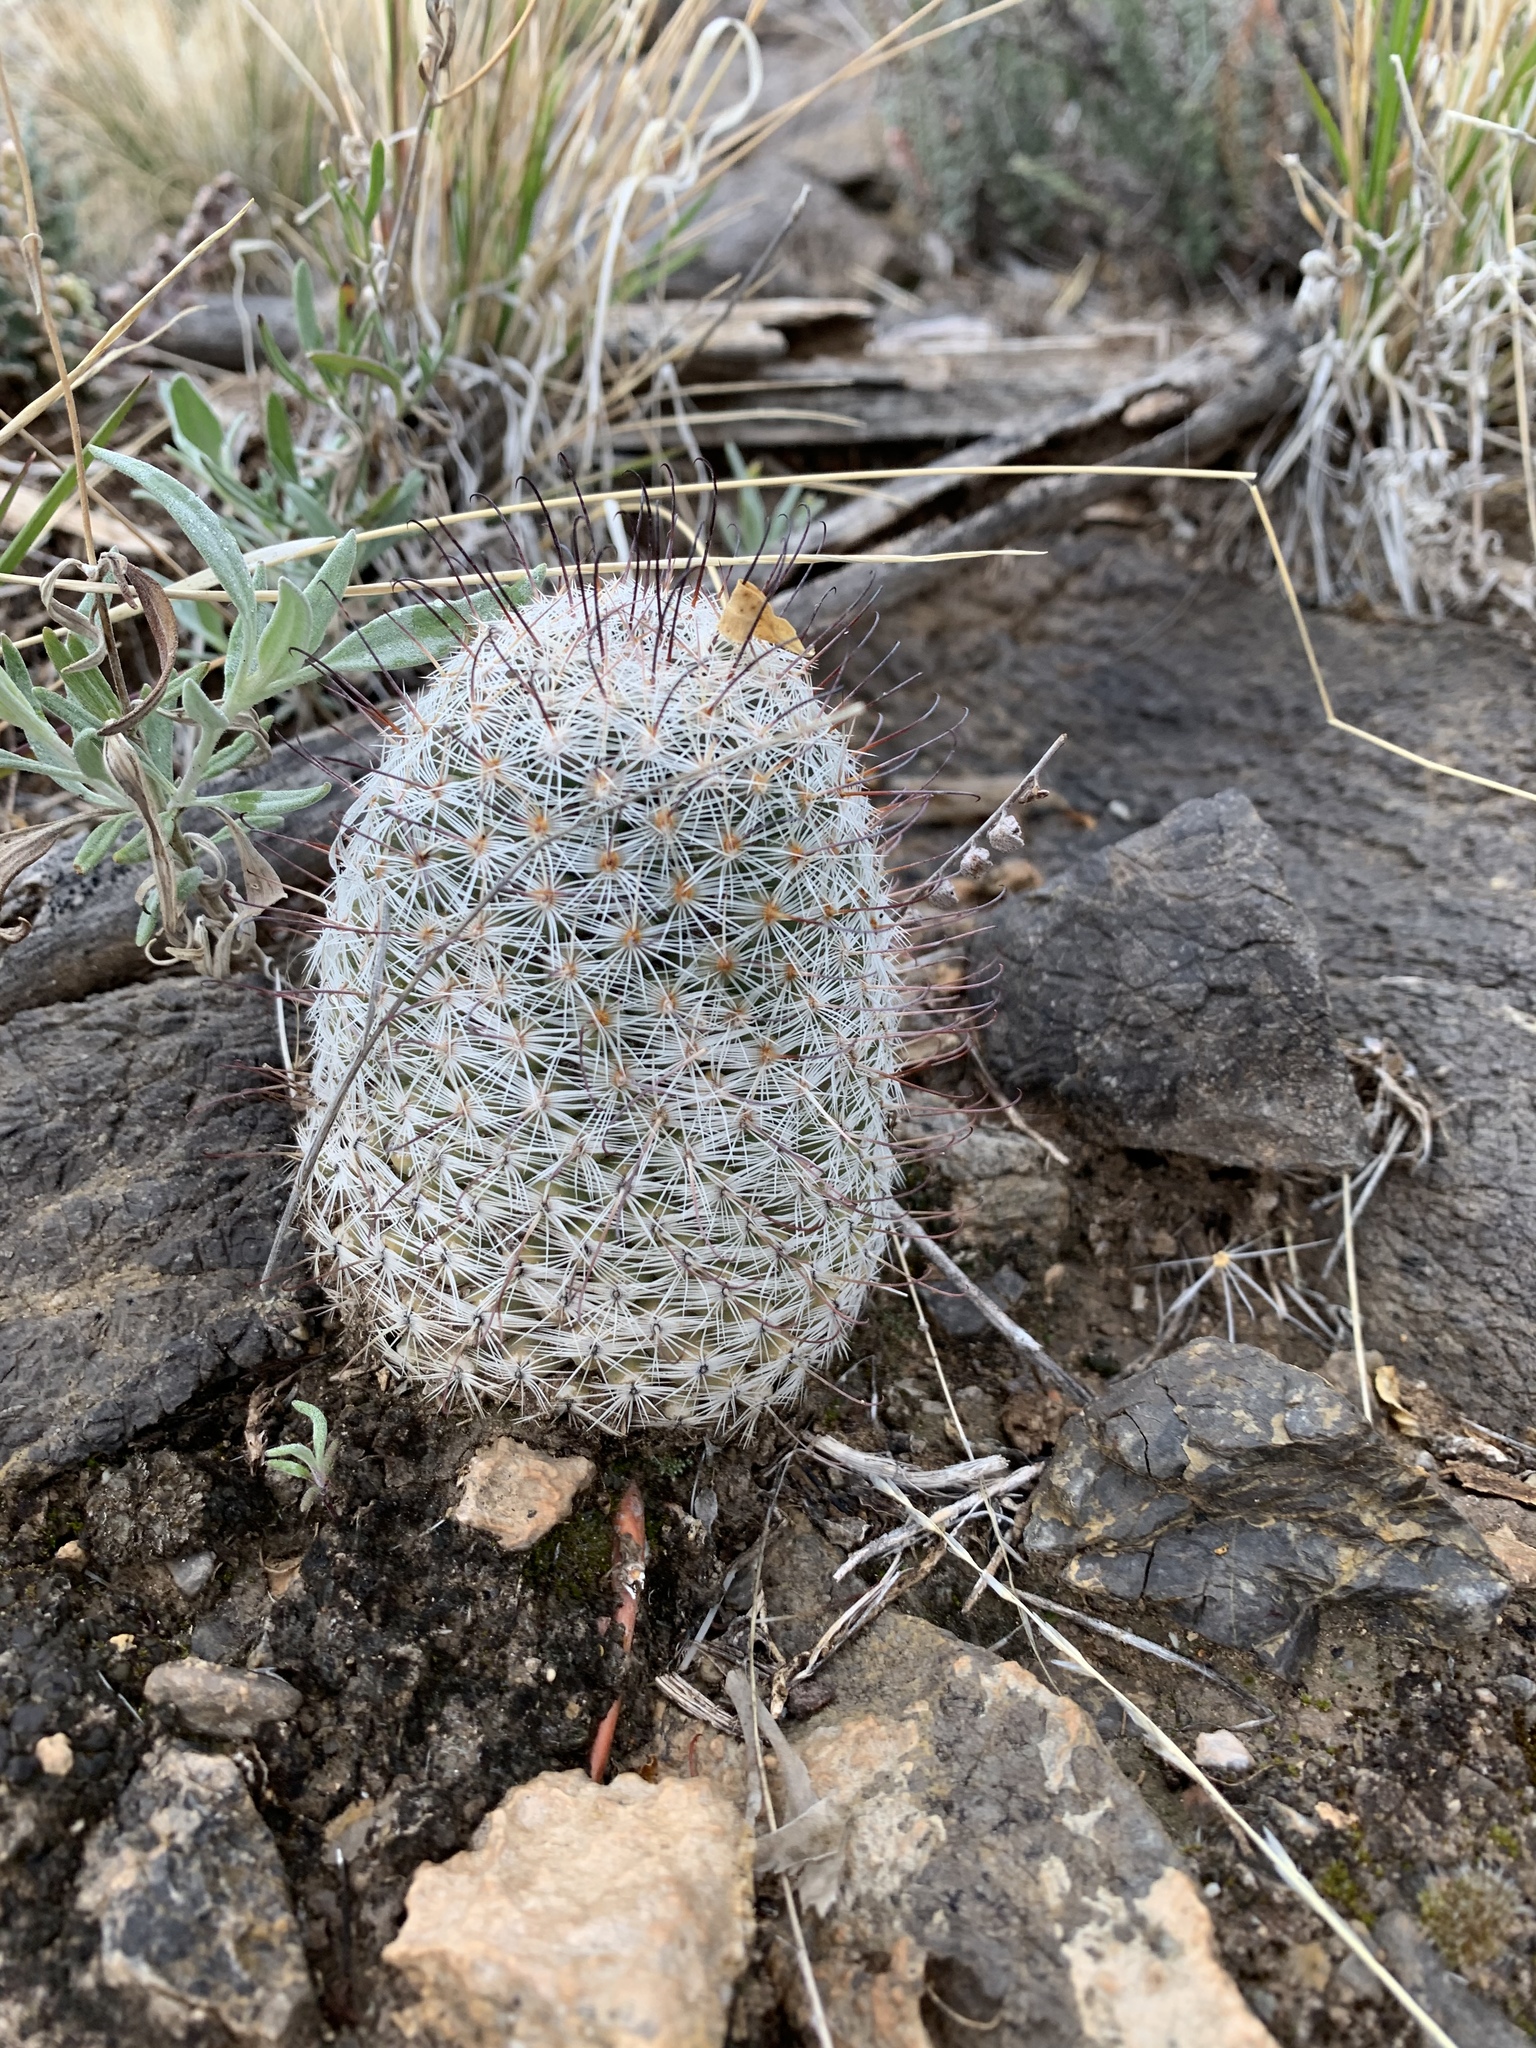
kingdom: Plantae
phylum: Tracheophyta
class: Magnoliopsida
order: Caryophyllales
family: Cactaceae
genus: Cochemiea
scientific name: Cochemiea grahamii
